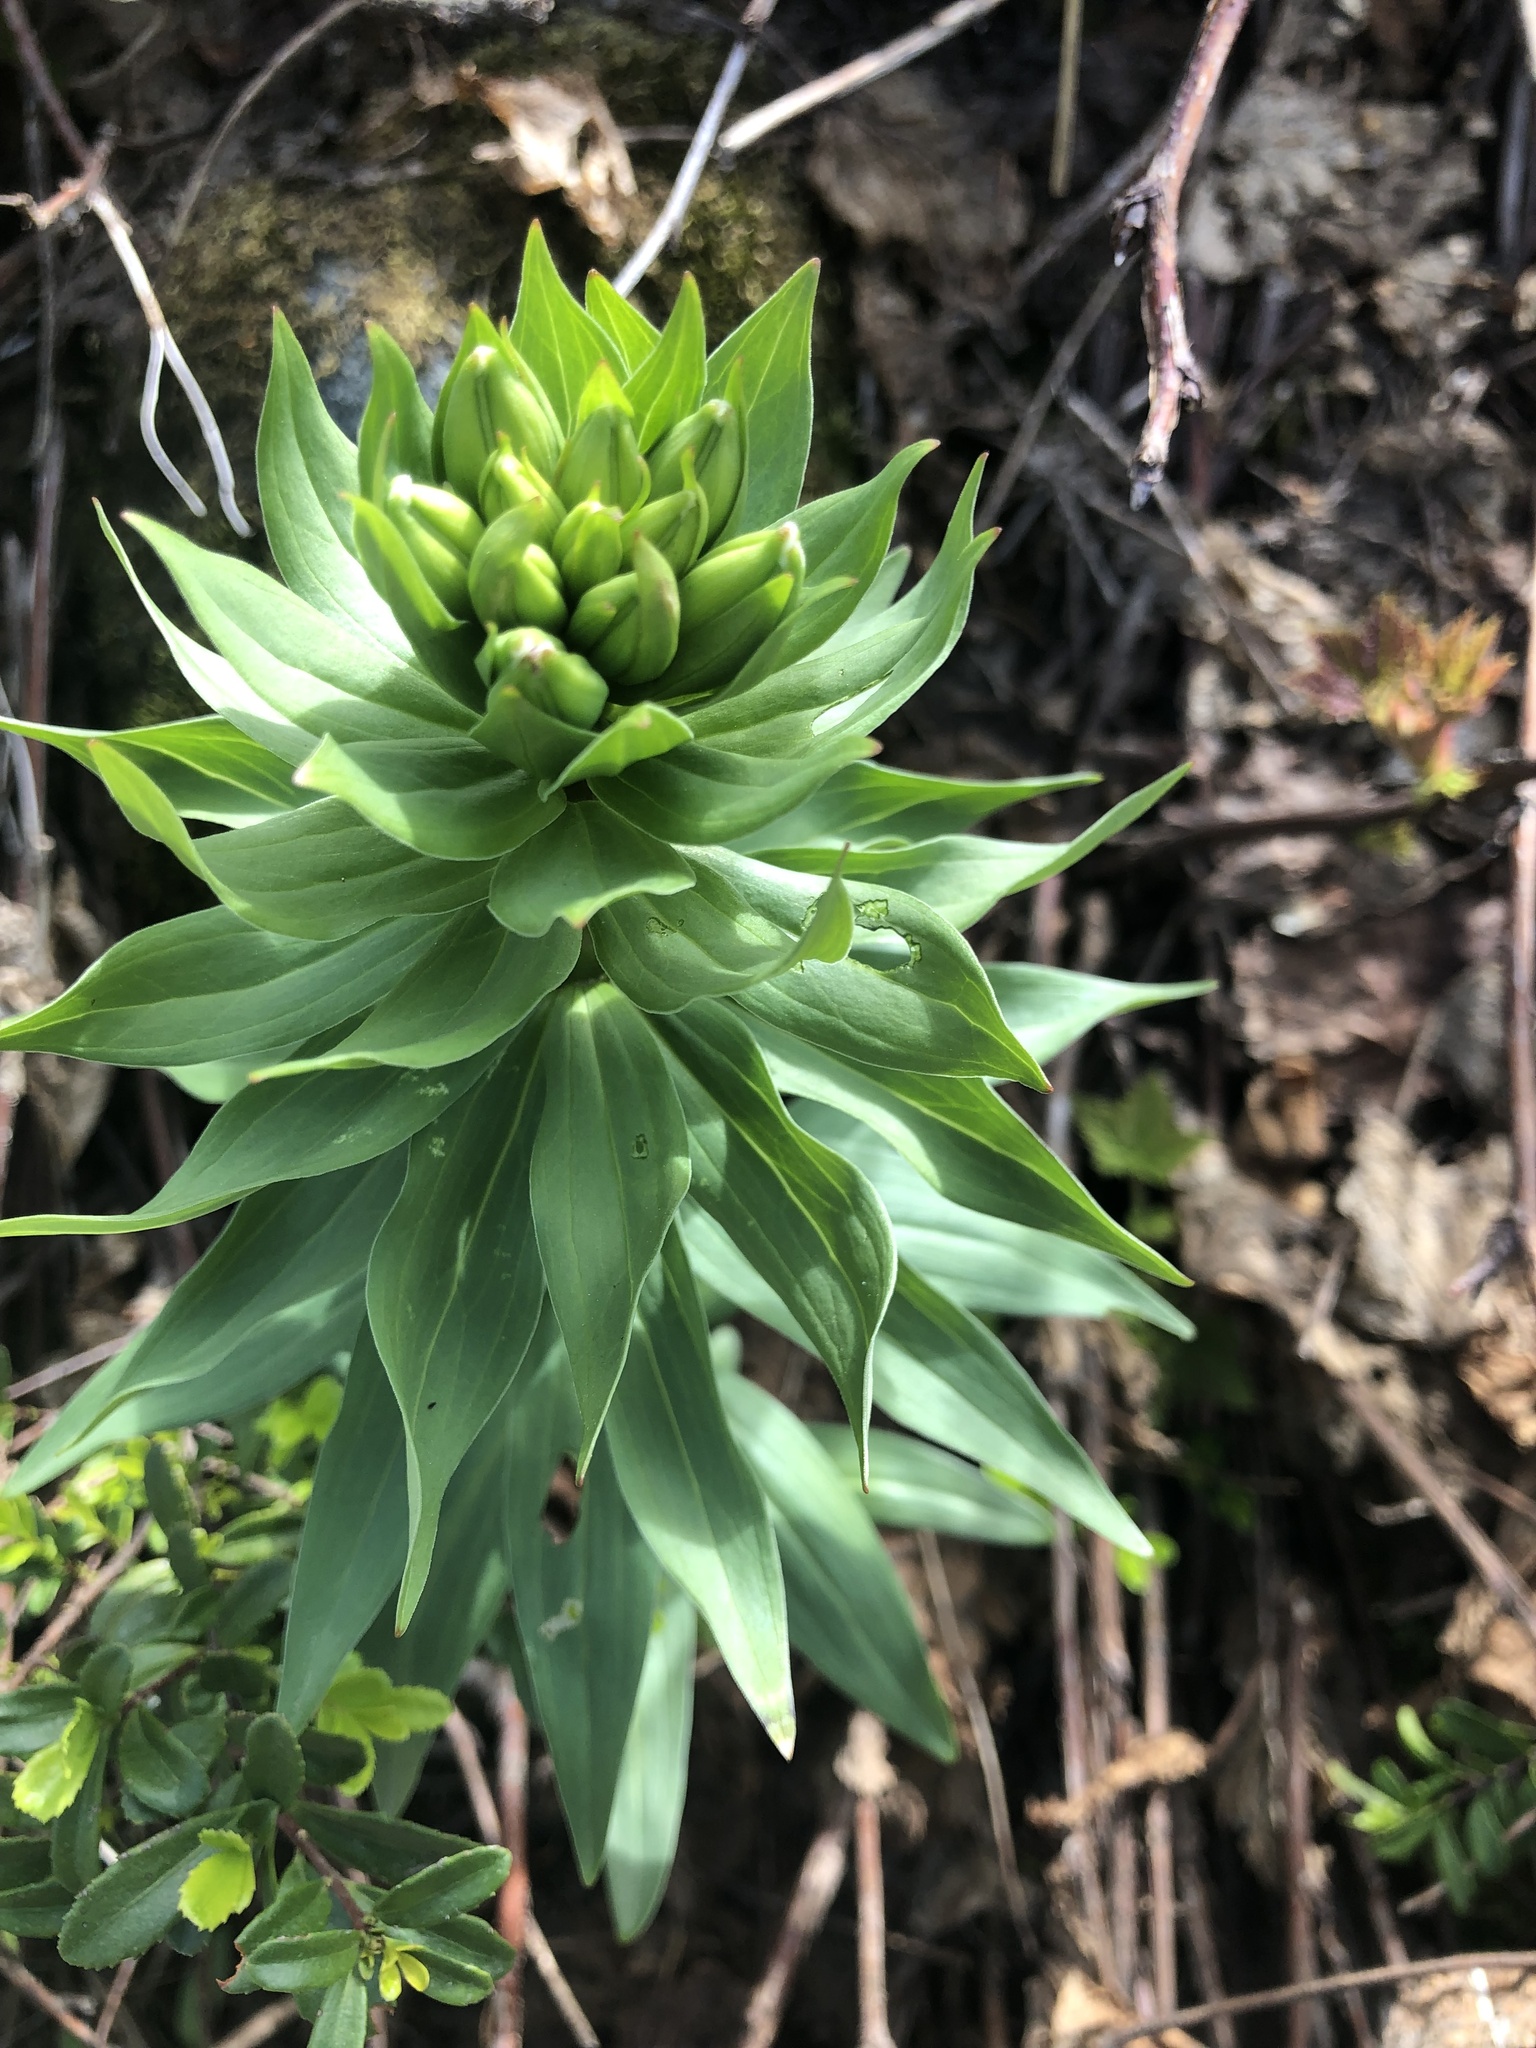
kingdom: Plantae
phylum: Tracheophyta
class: Liliopsida
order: Liliales
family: Liliaceae
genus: Lilium
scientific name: Lilium columbianum
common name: Columbia lily
